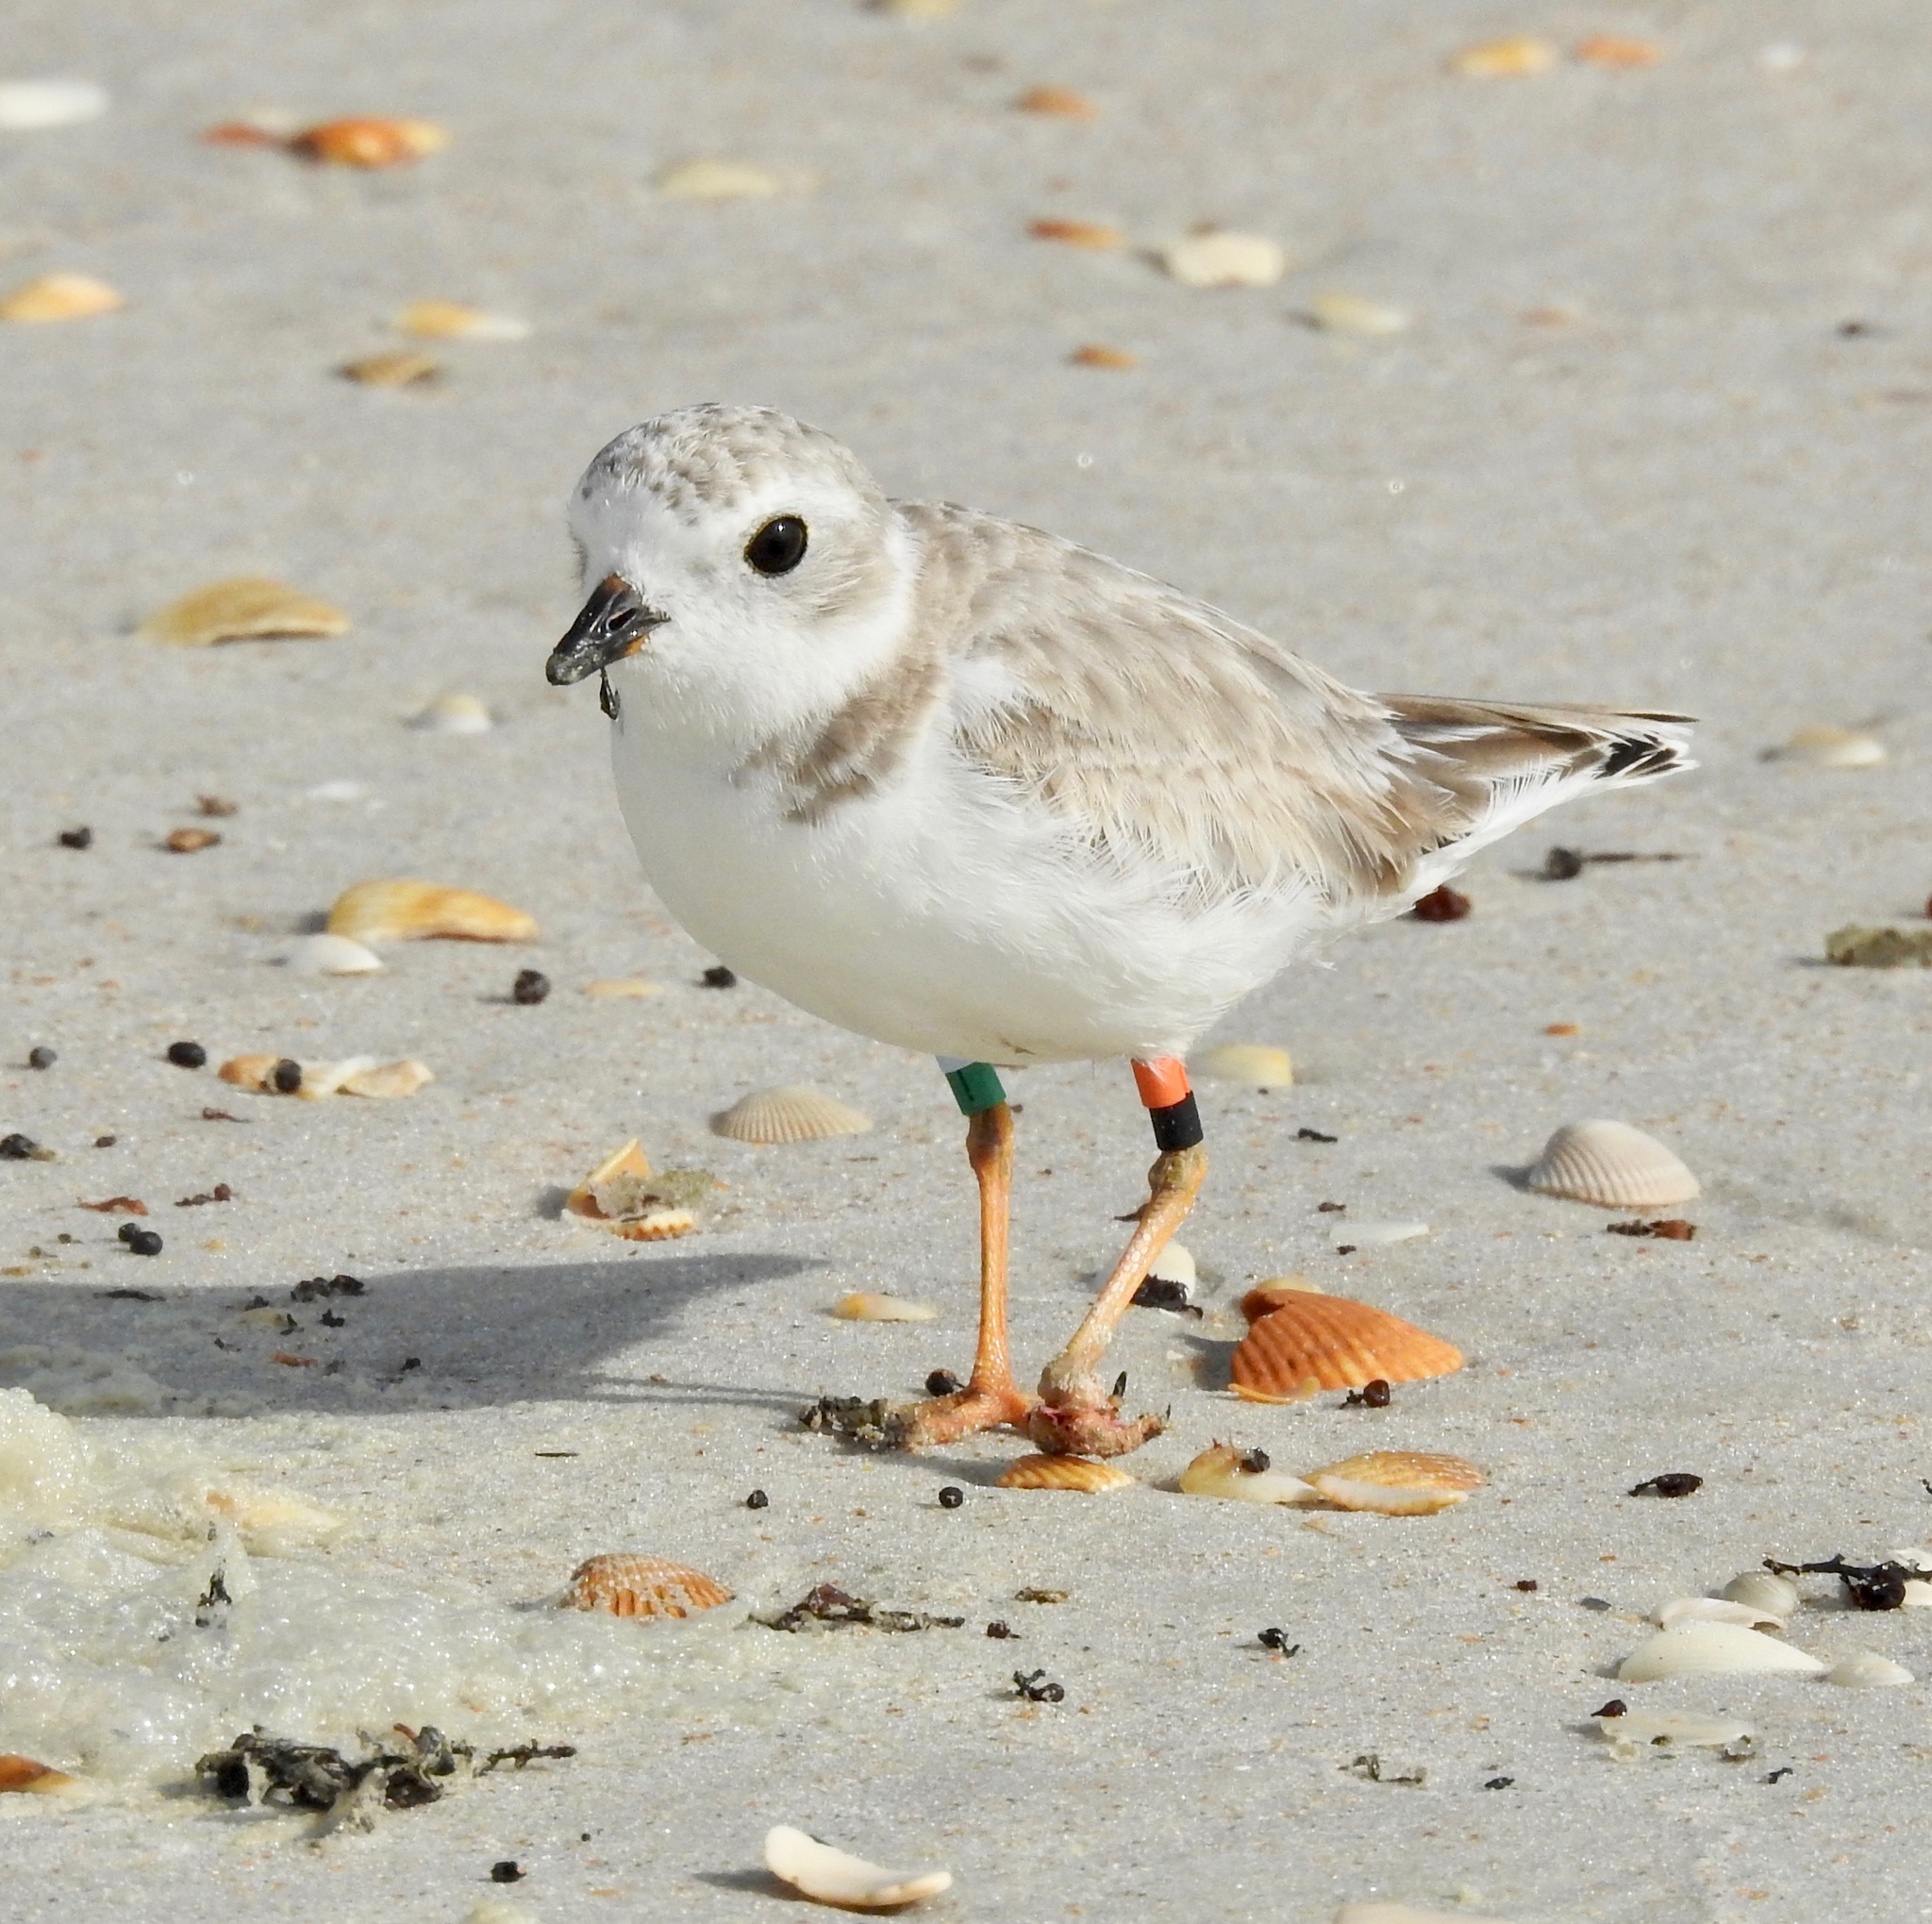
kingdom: Animalia
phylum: Chordata
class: Aves
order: Charadriiformes
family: Charadriidae
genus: Charadrius
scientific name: Charadrius melodus
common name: Piping plover
